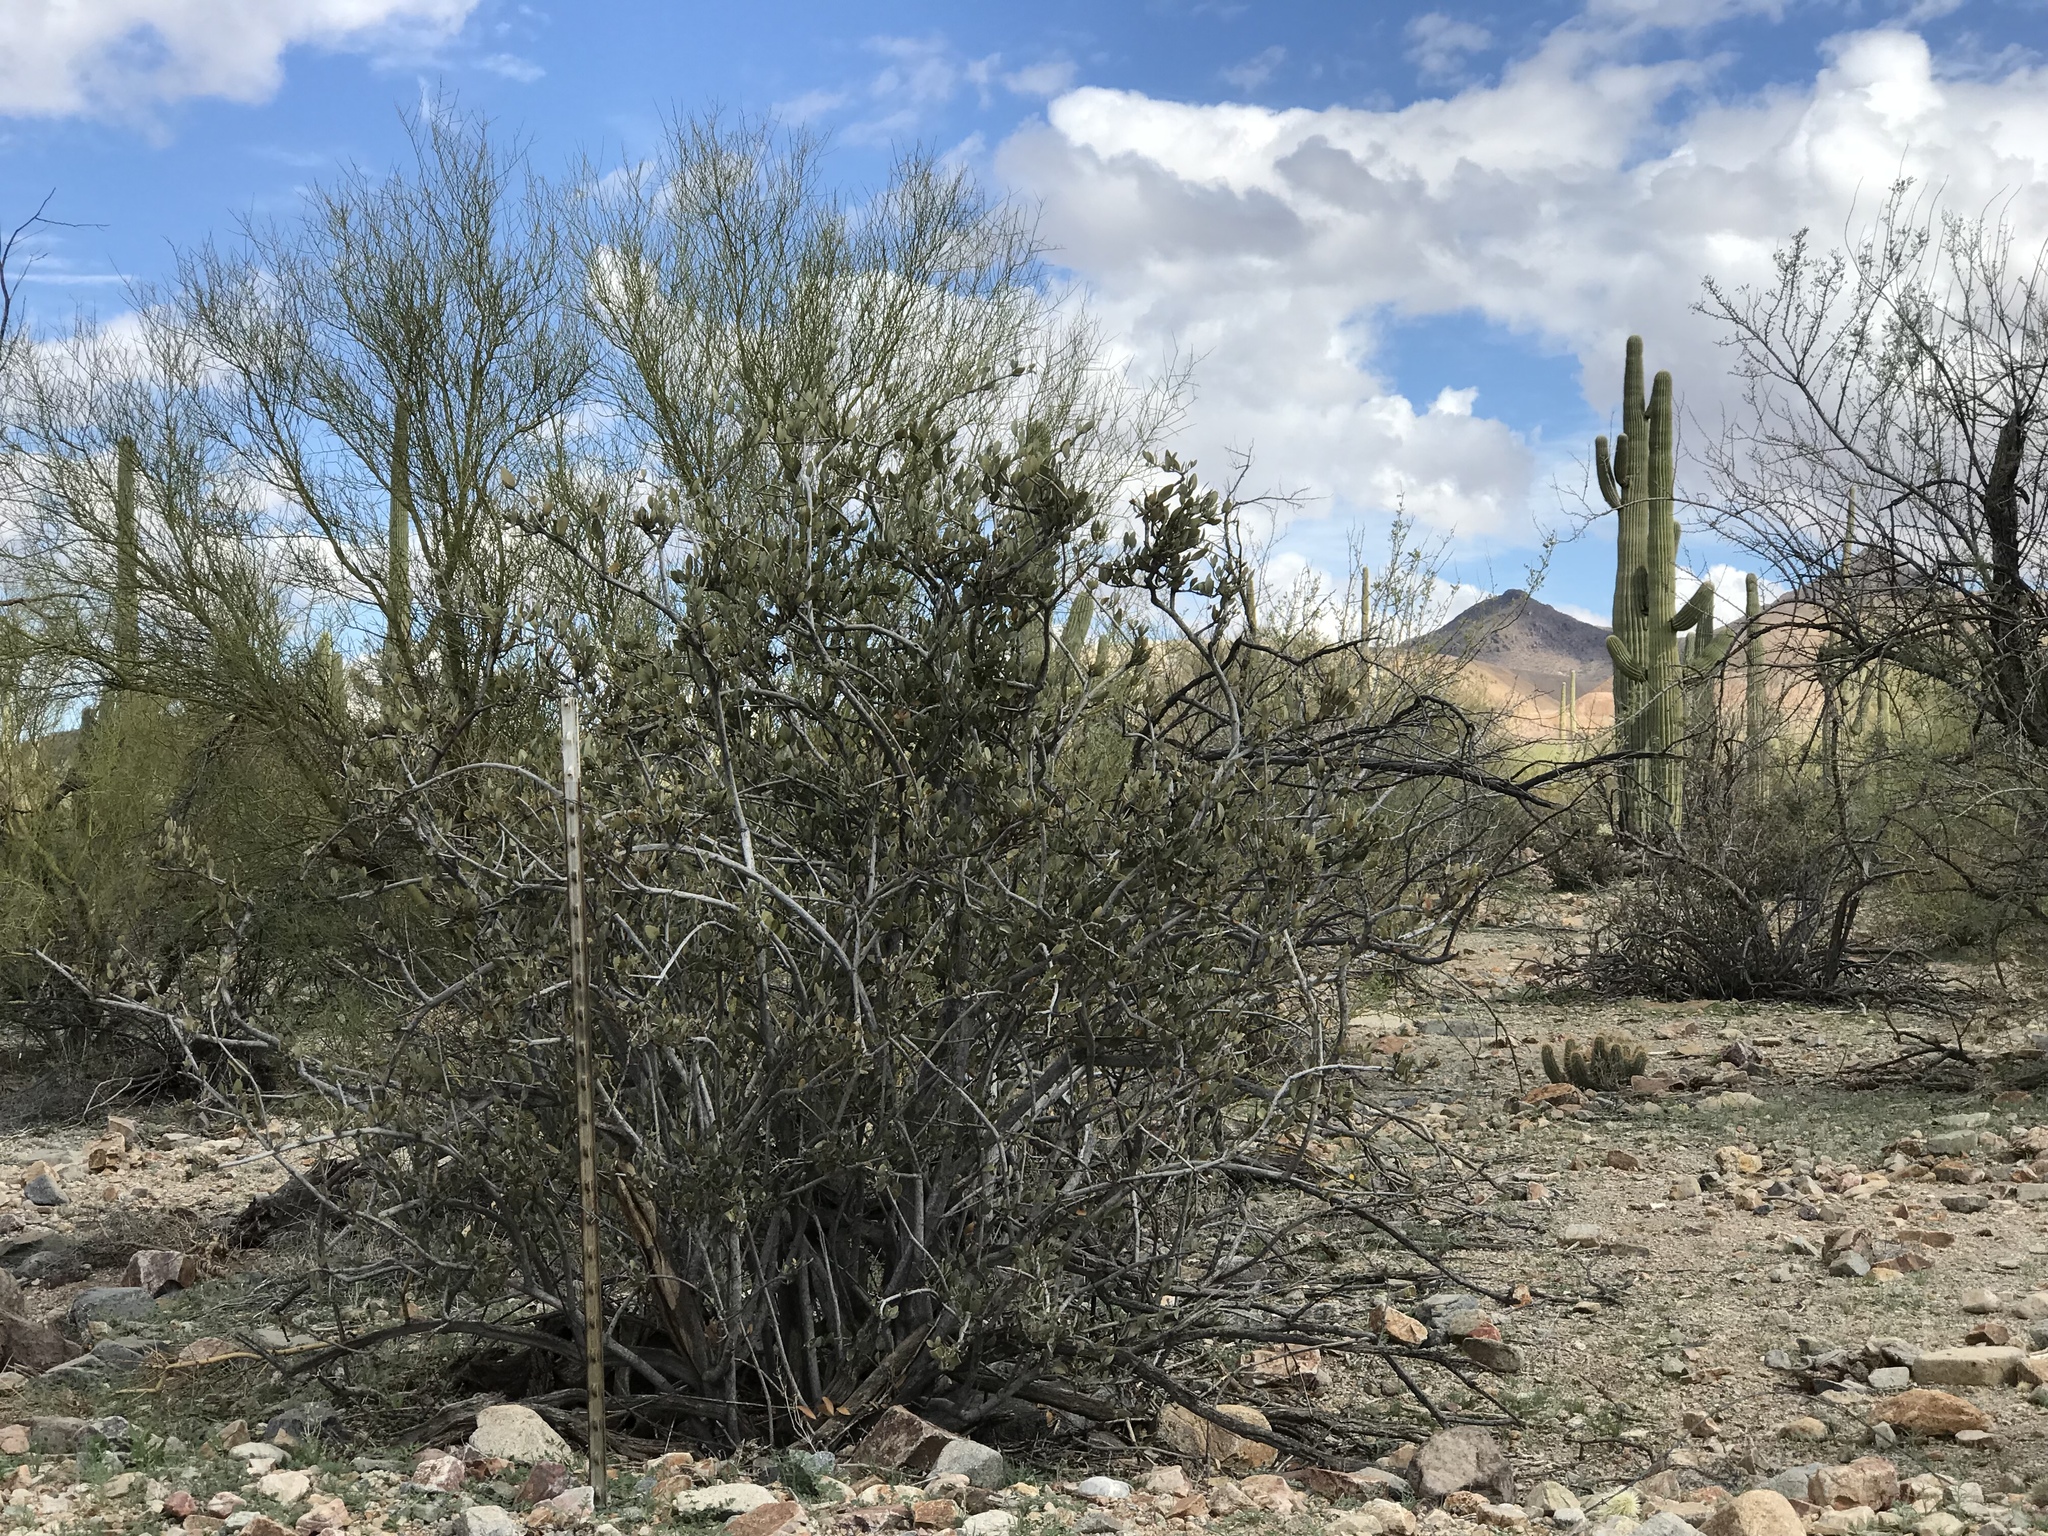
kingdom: Plantae
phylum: Tracheophyta
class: Magnoliopsida
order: Fabales
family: Fabaceae
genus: Parkinsonia
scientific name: Parkinsonia microphylla
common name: Yellow paloverde
